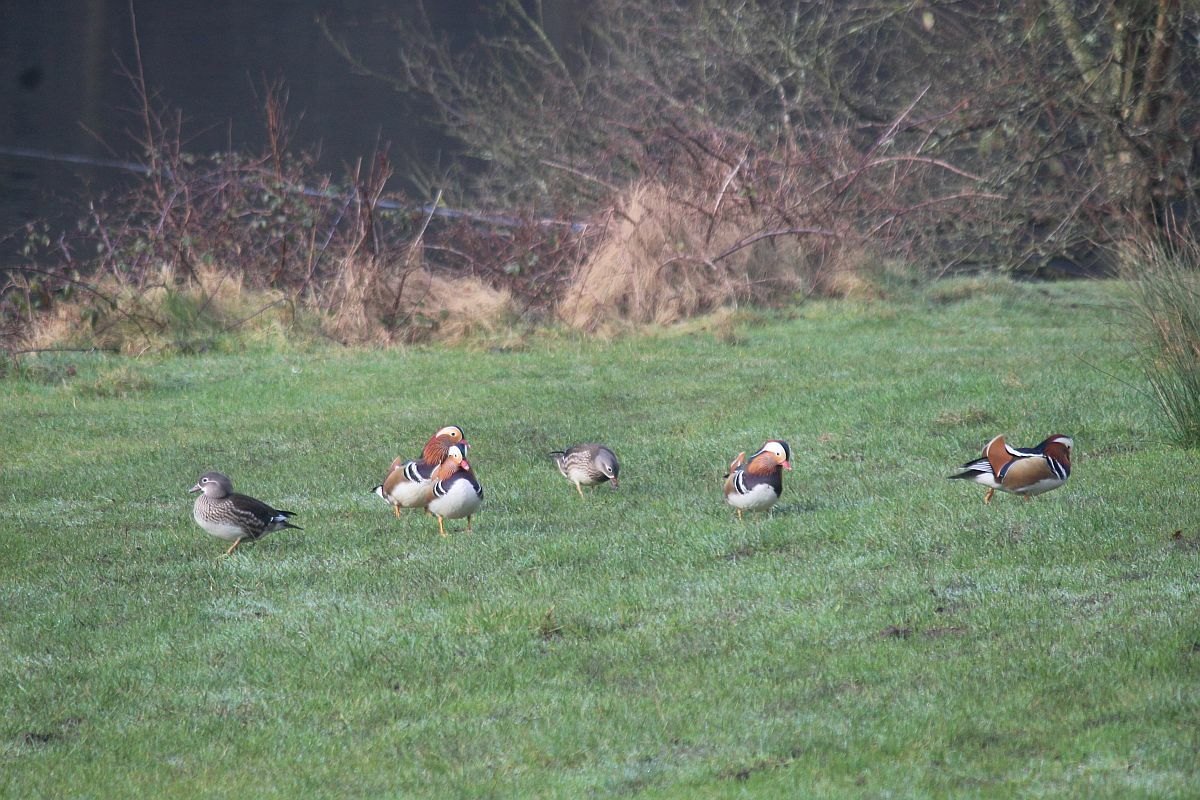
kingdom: Animalia
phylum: Chordata
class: Aves
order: Anseriformes
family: Anatidae
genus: Aix
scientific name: Aix galericulata
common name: Mandarin duck
